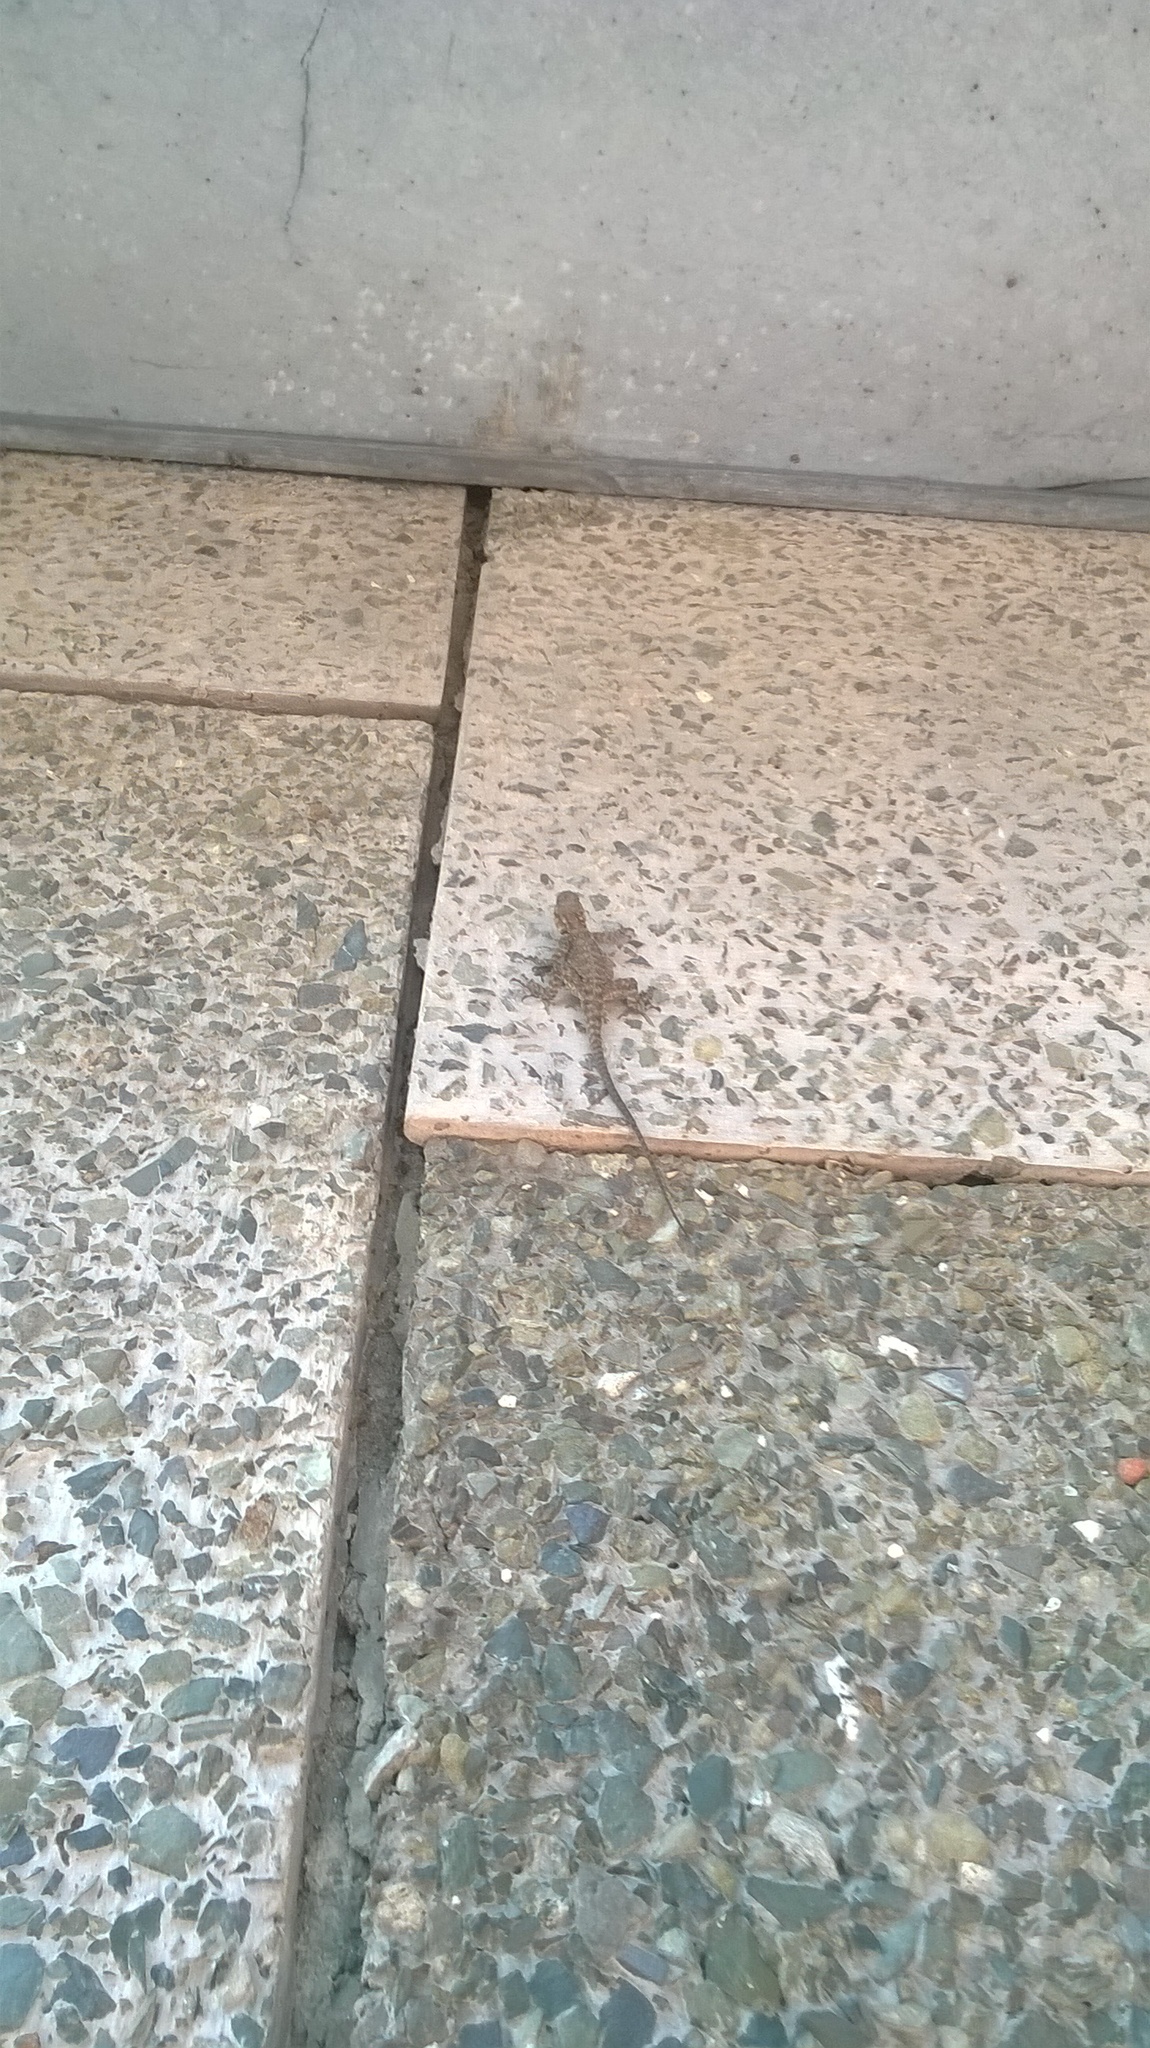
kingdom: Animalia
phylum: Chordata
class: Squamata
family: Agamidae
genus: Laudakia
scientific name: Laudakia tuberculata
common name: Kashmir rock agama
